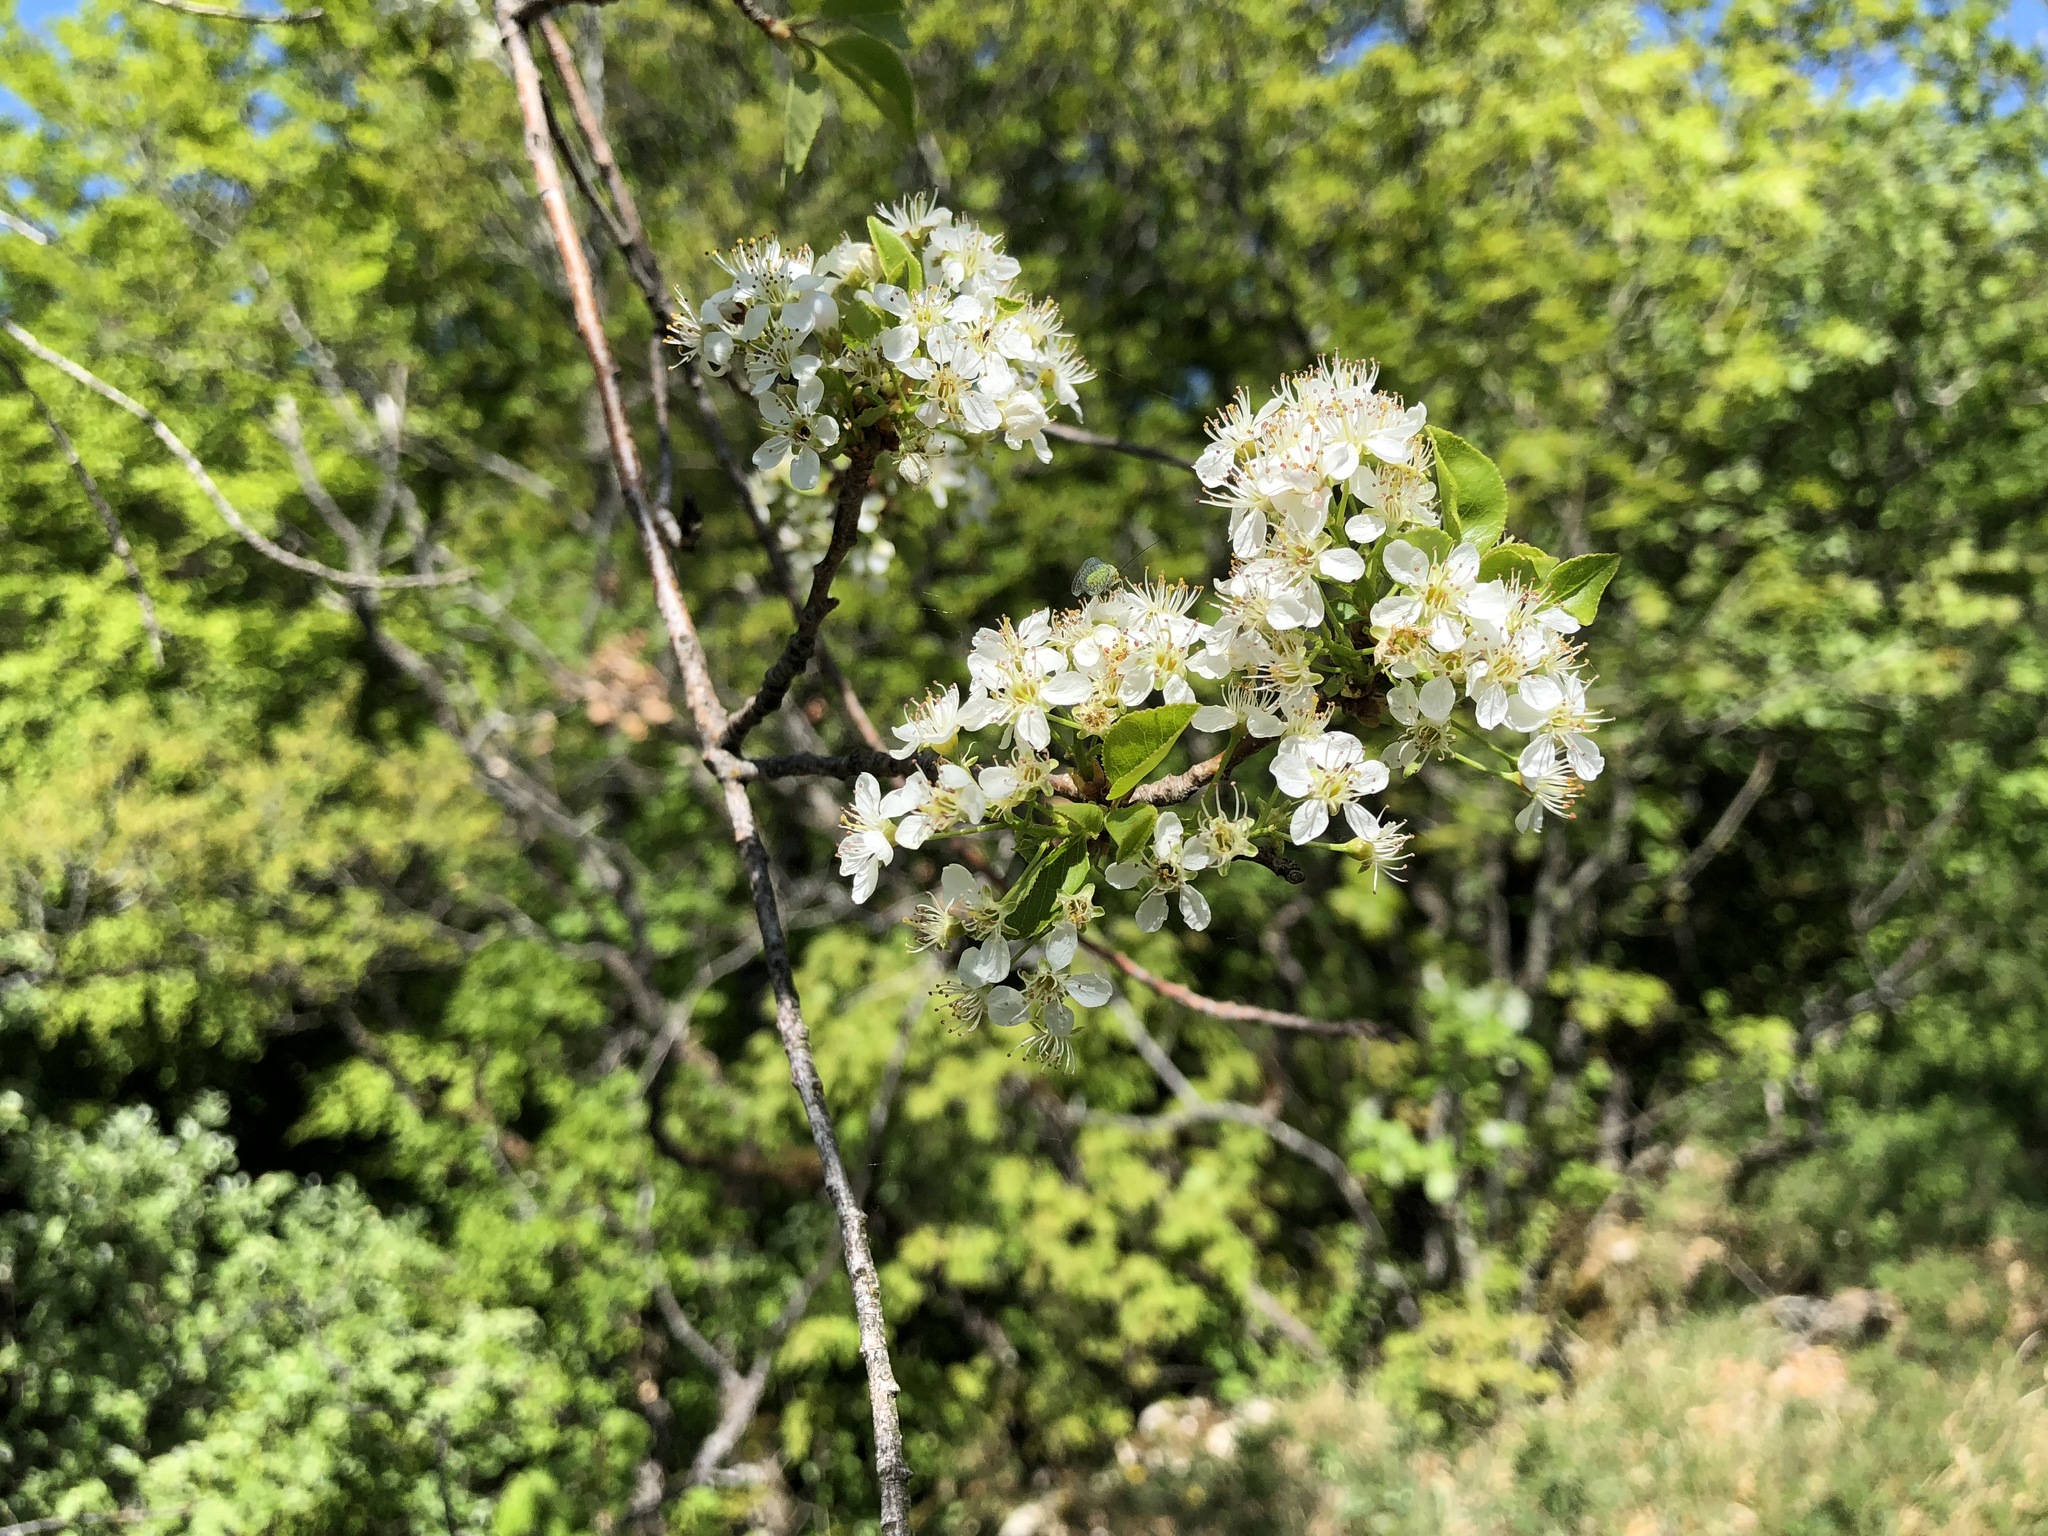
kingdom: Plantae
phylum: Tracheophyta
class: Magnoliopsida
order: Rosales
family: Rosaceae
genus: Prunus
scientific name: Prunus mahaleb
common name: Mahaleb cherry
